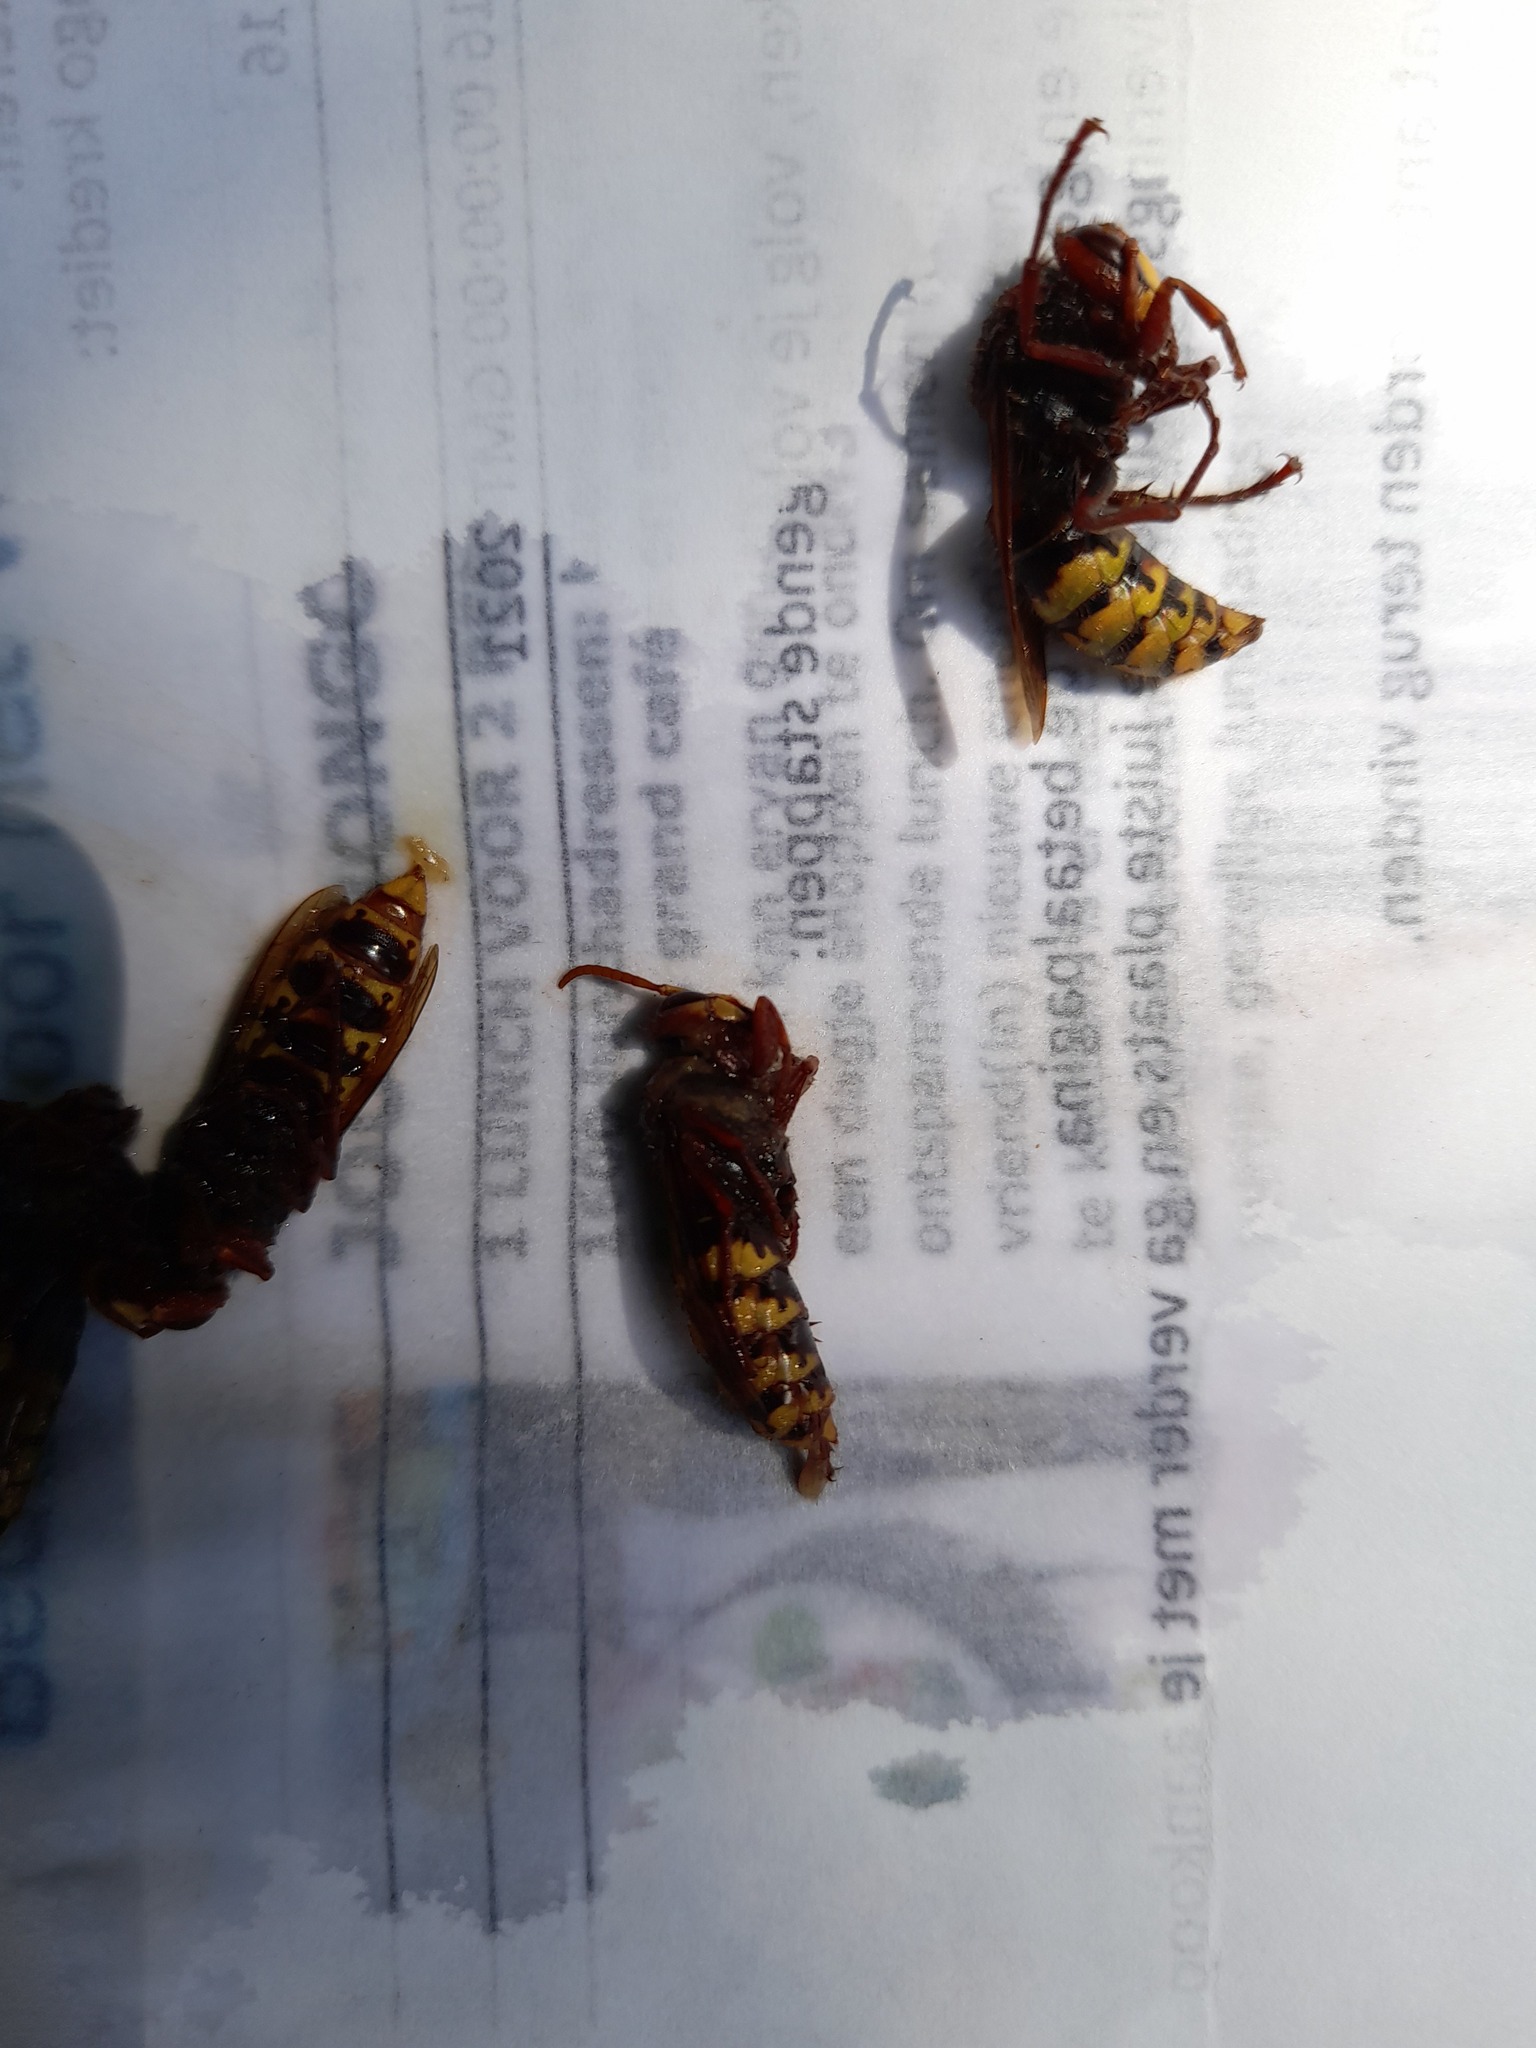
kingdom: Animalia
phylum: Arthropoda
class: Insecta
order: Hymenoptera
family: Vespidae
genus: Vespa
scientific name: Vespa crabro
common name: Hornet
